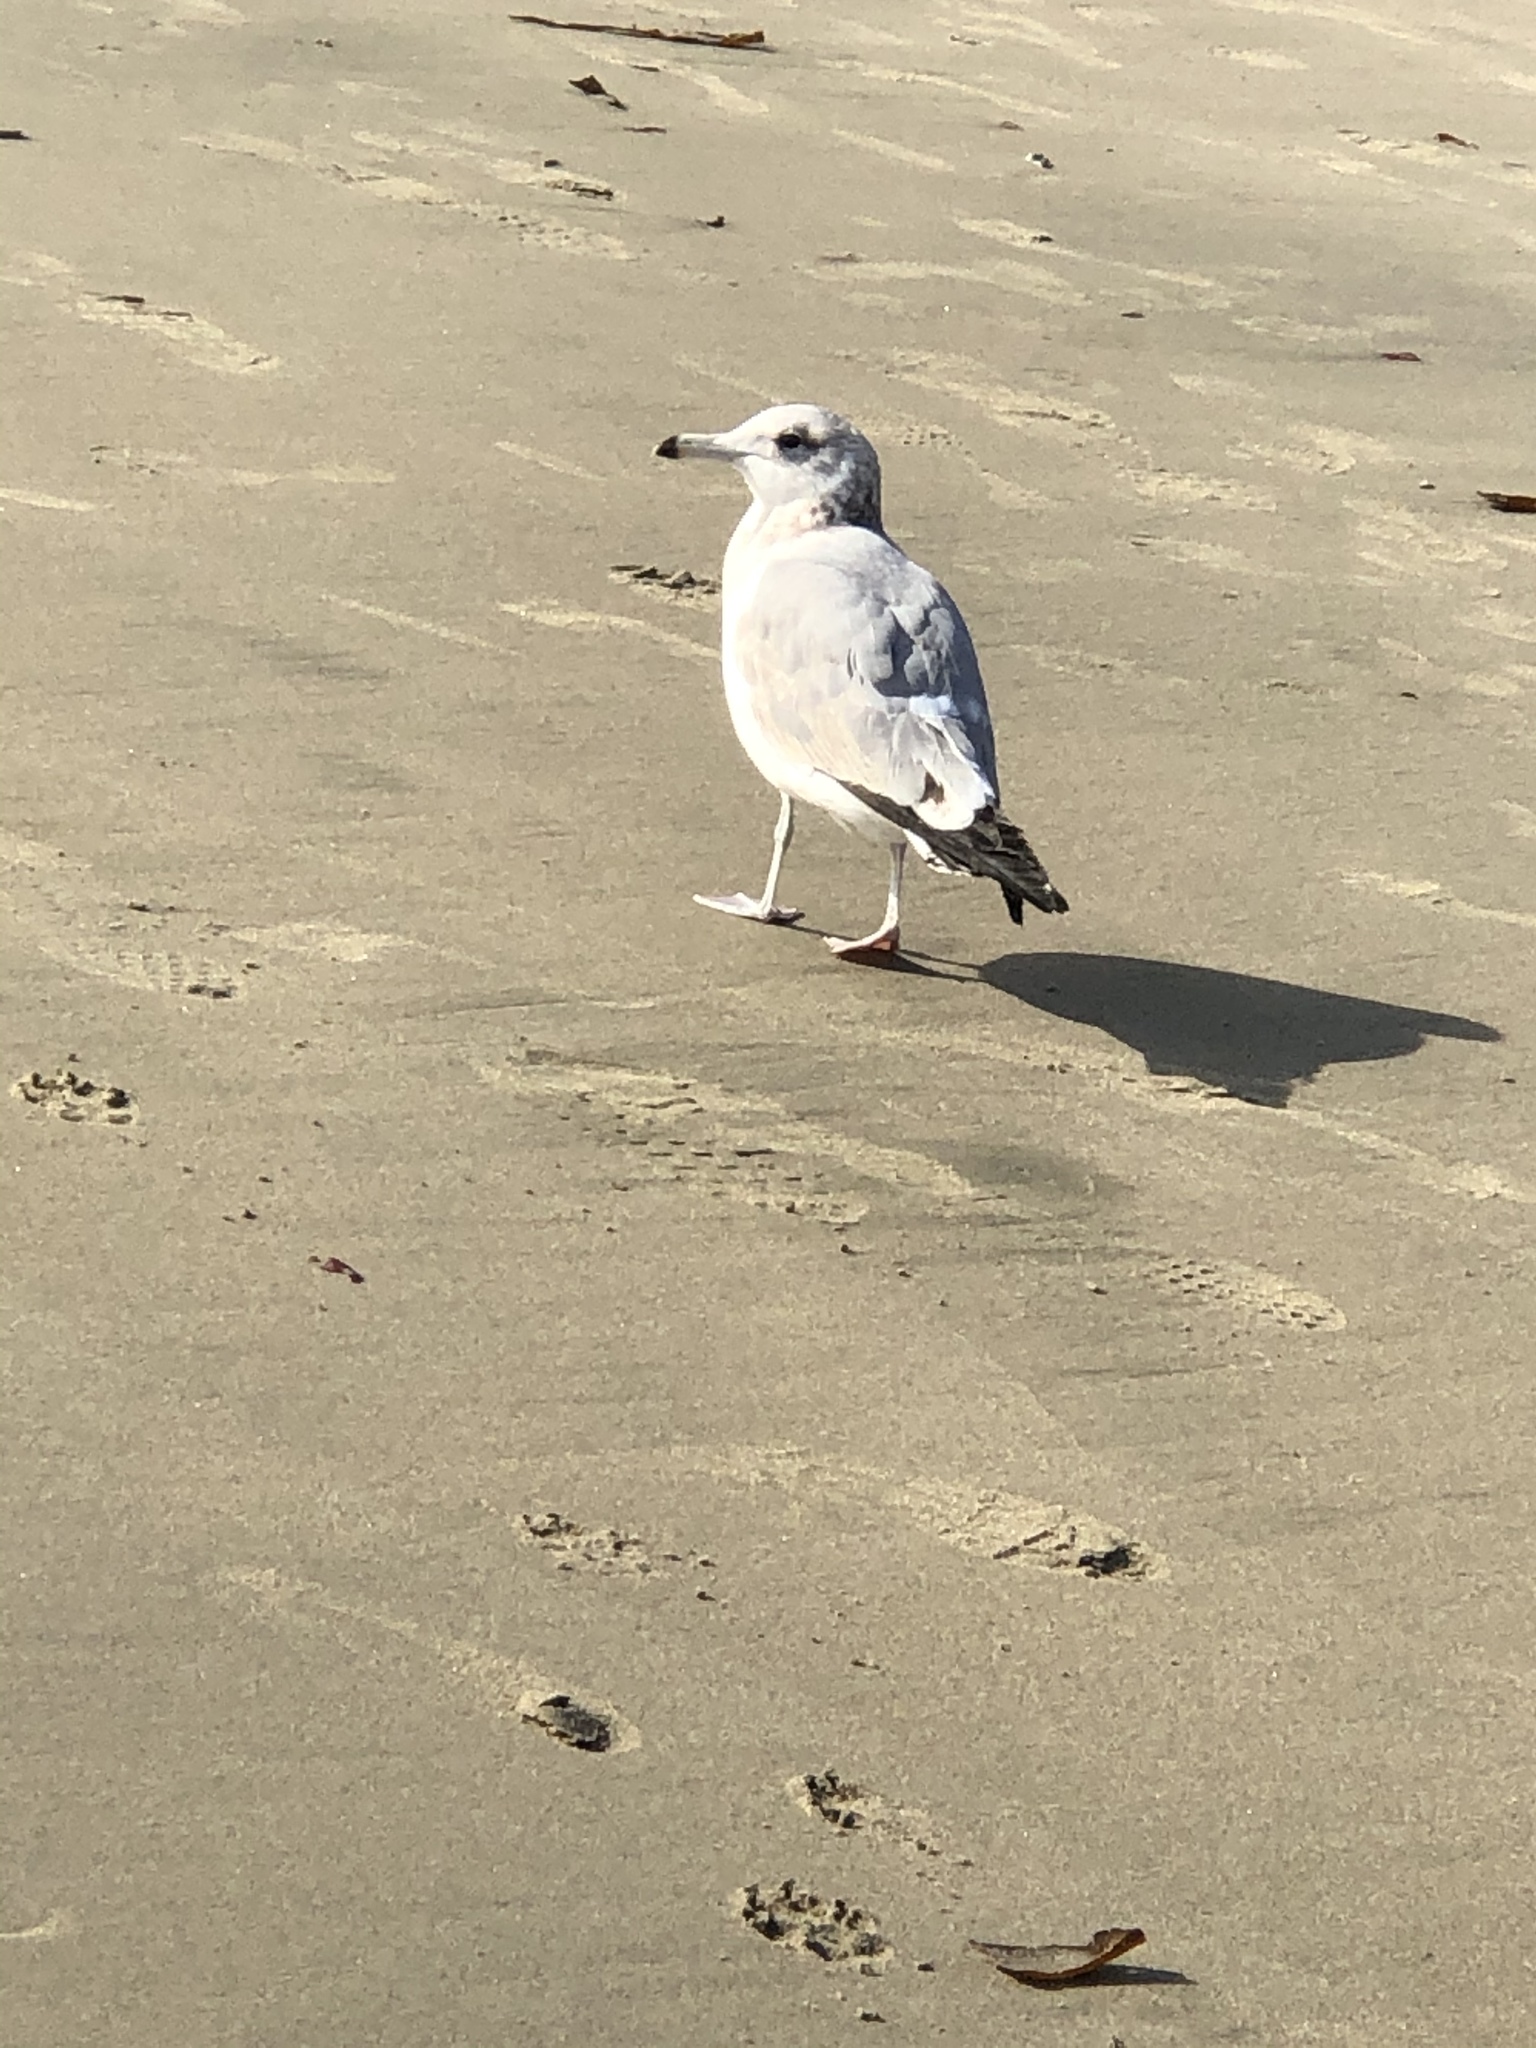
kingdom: Animalia
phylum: Chordata
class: Aves
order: Charadriiformes
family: Laridae
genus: Larus
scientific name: Larus californicus
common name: California gull
